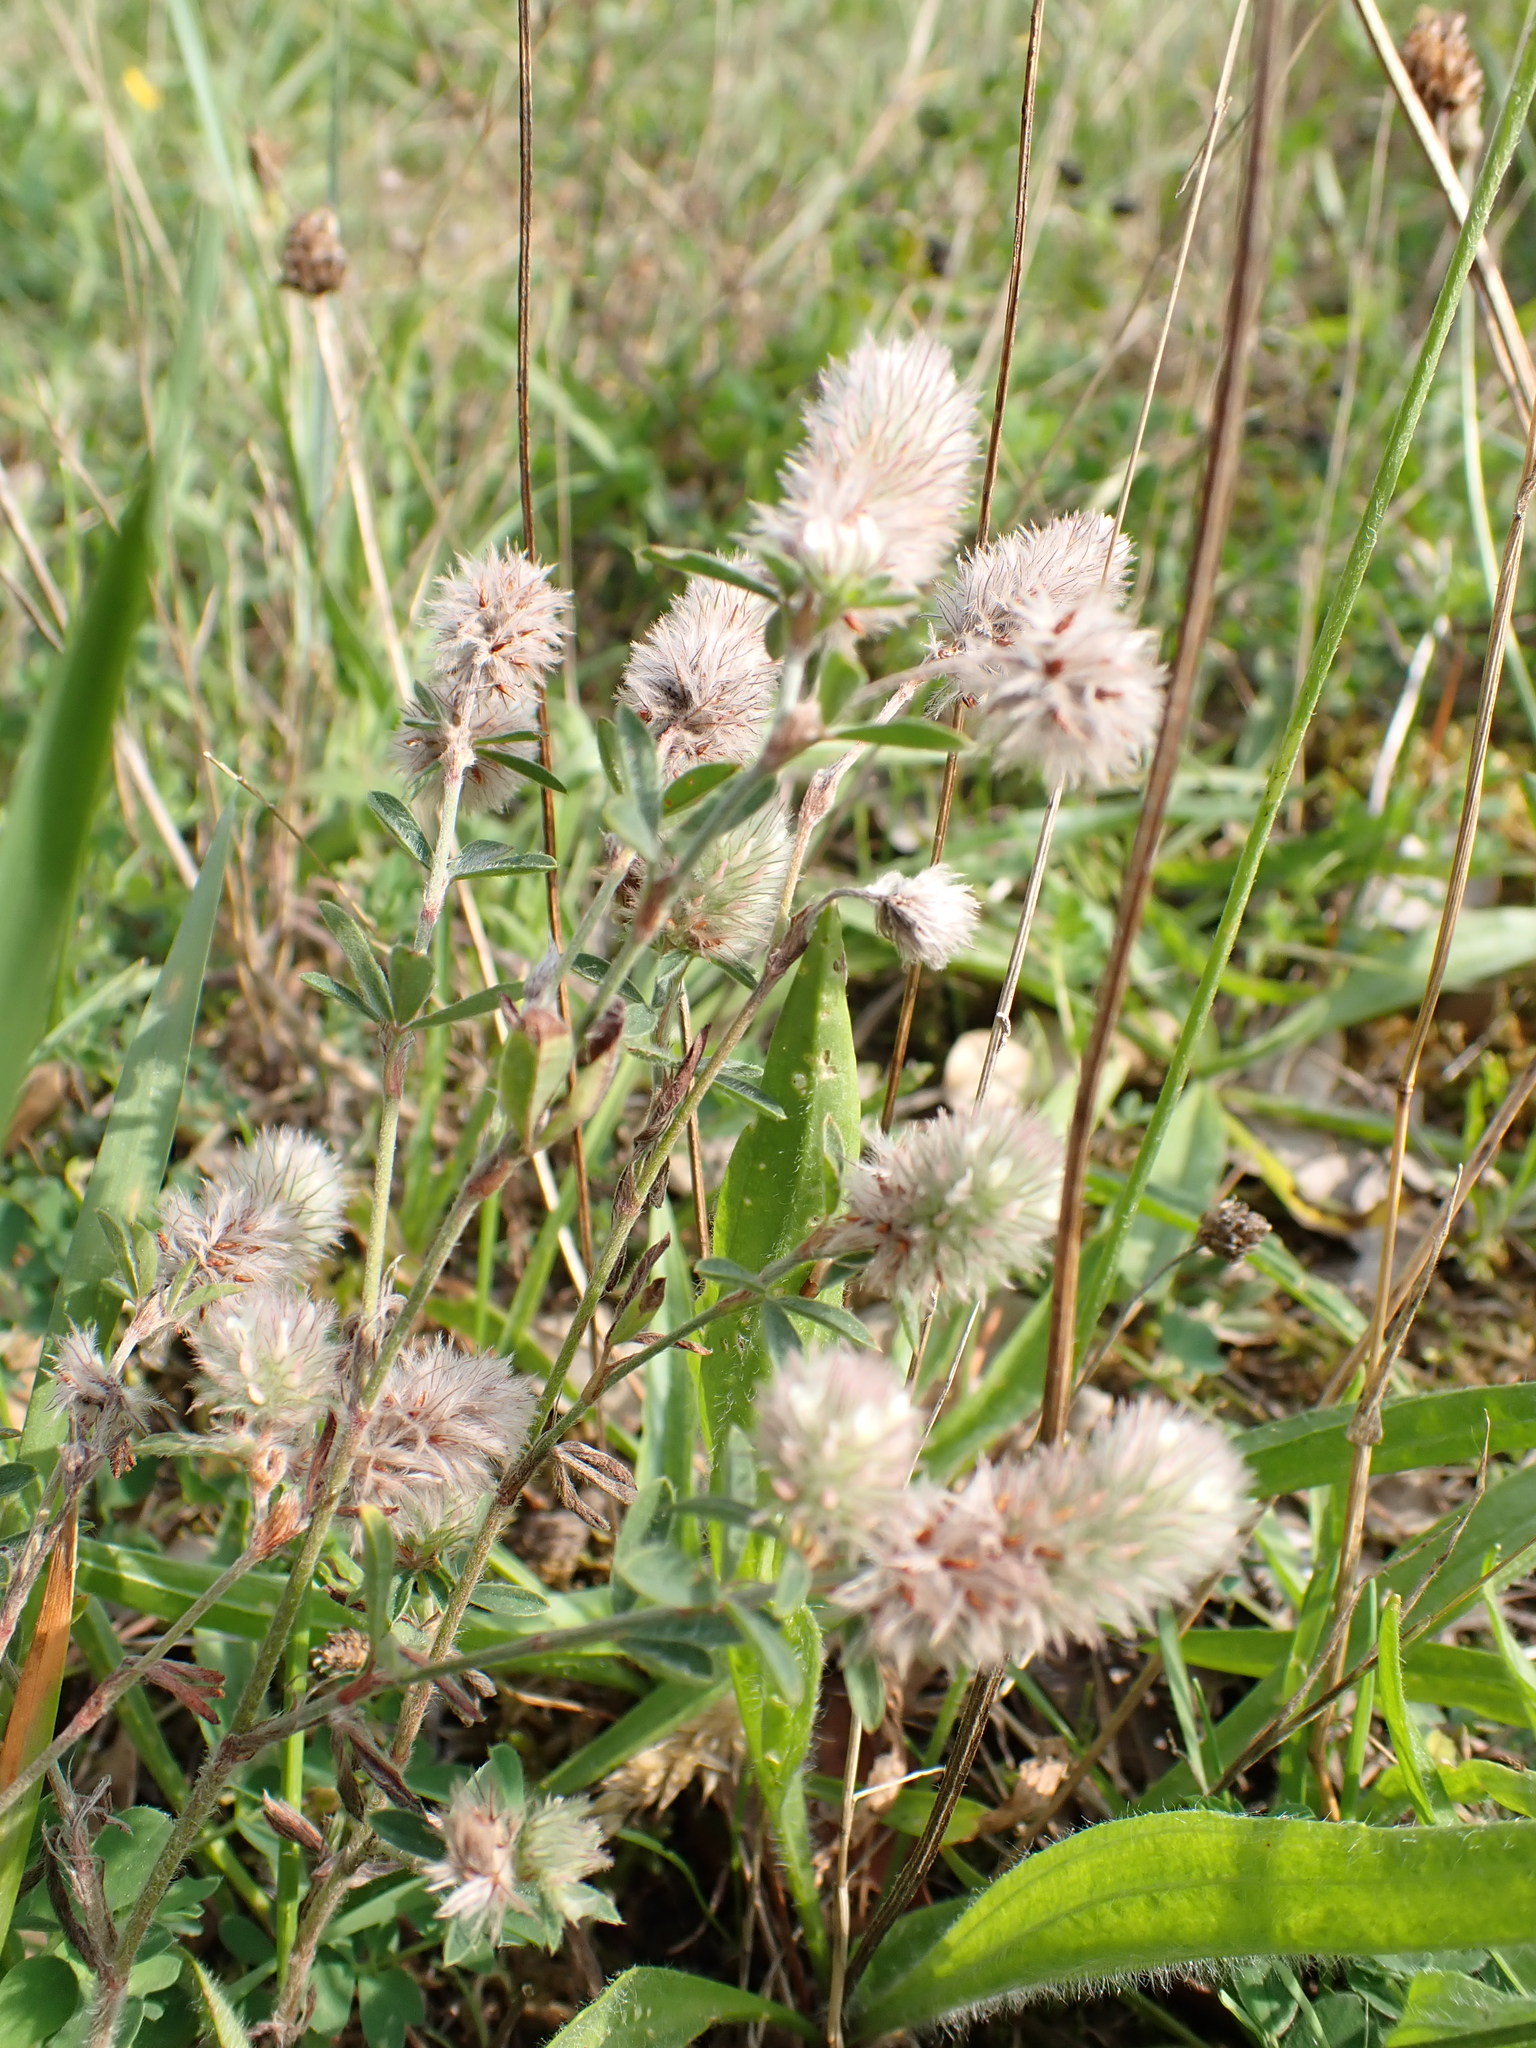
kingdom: Plantae
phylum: Tracheophyta
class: Magnoliopsida
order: Fabales
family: Fabaceae
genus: Trifolium
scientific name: Trifolium arvense
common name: Hare's-foot clover
